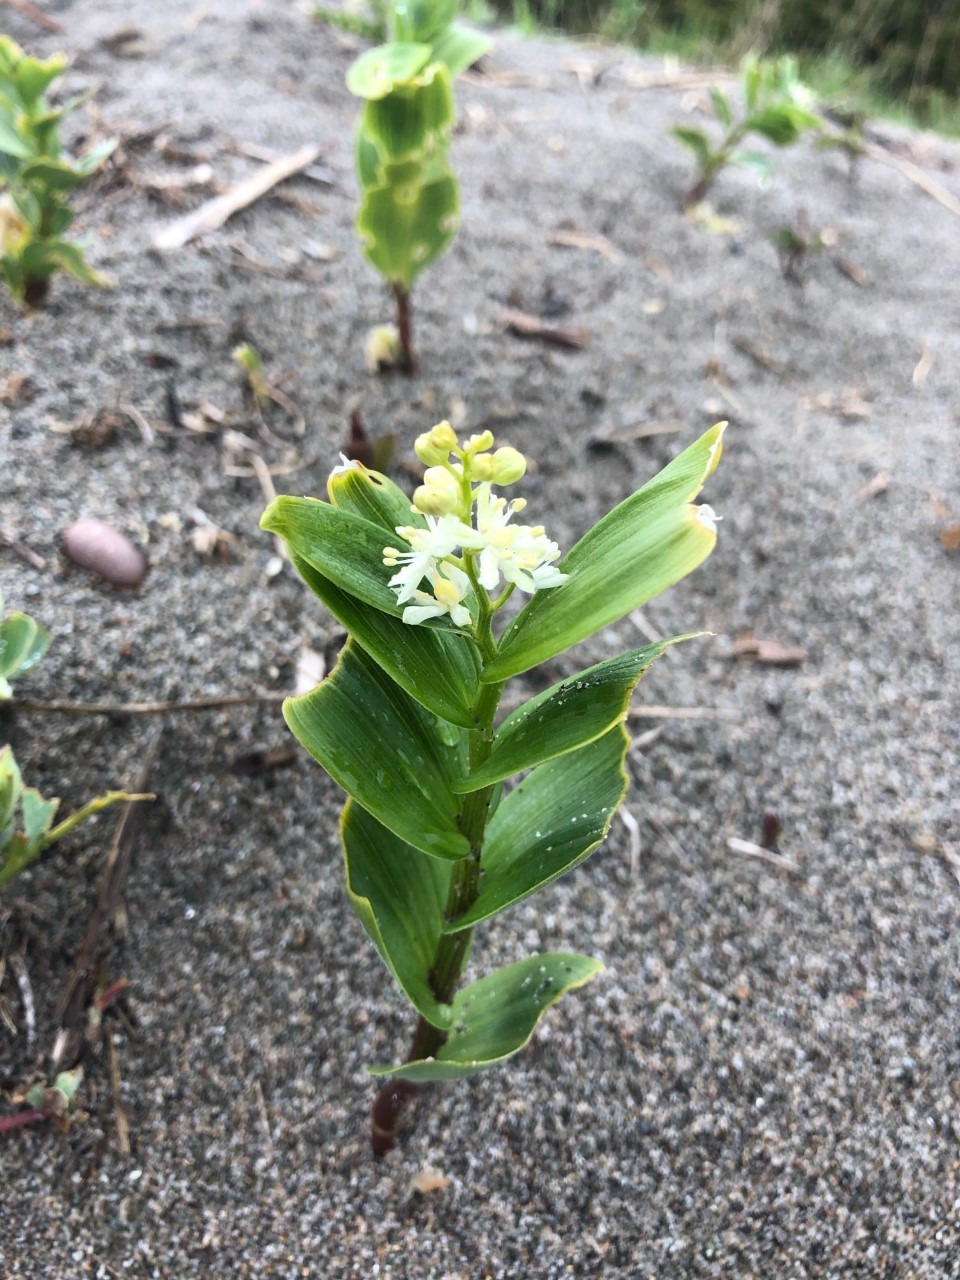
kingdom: Plantae
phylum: Tracheophyta
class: Liliopsida
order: Asparagales
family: Asparagaceae
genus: Maianthemum
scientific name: Maianthemum stellatum
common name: Little false solomon's seal
